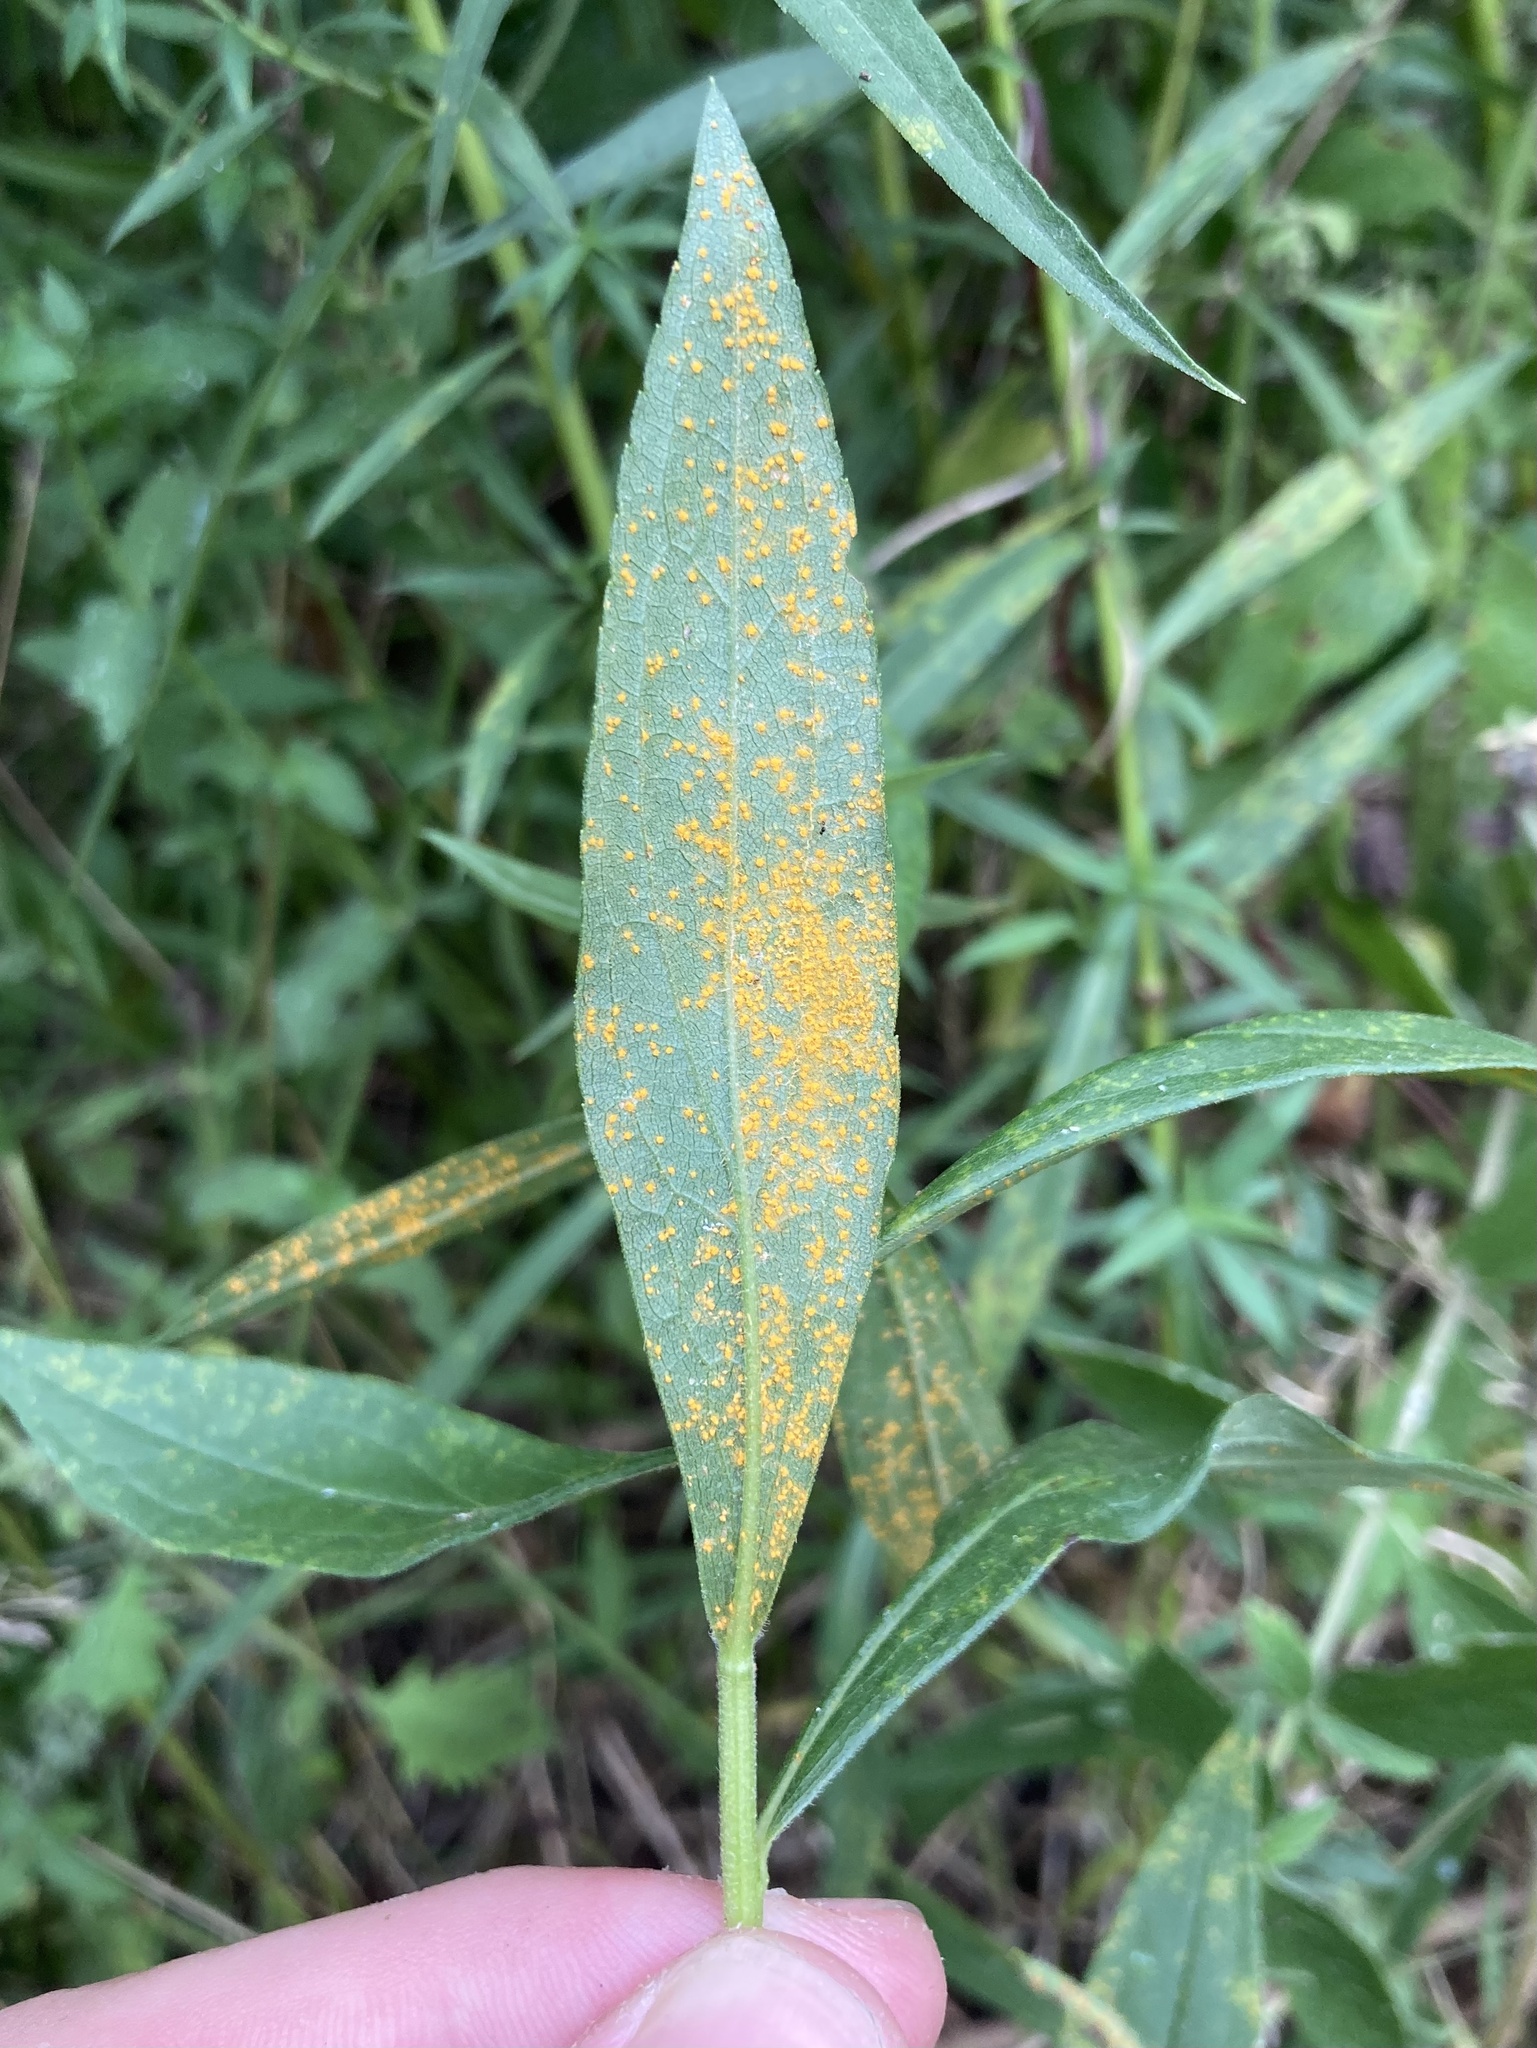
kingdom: Fungi
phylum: Basidiomycota
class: Pucciniomycetes
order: Pucciniales
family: Coleosporiaceae
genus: Coleosporium
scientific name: Coleosporium asterum
